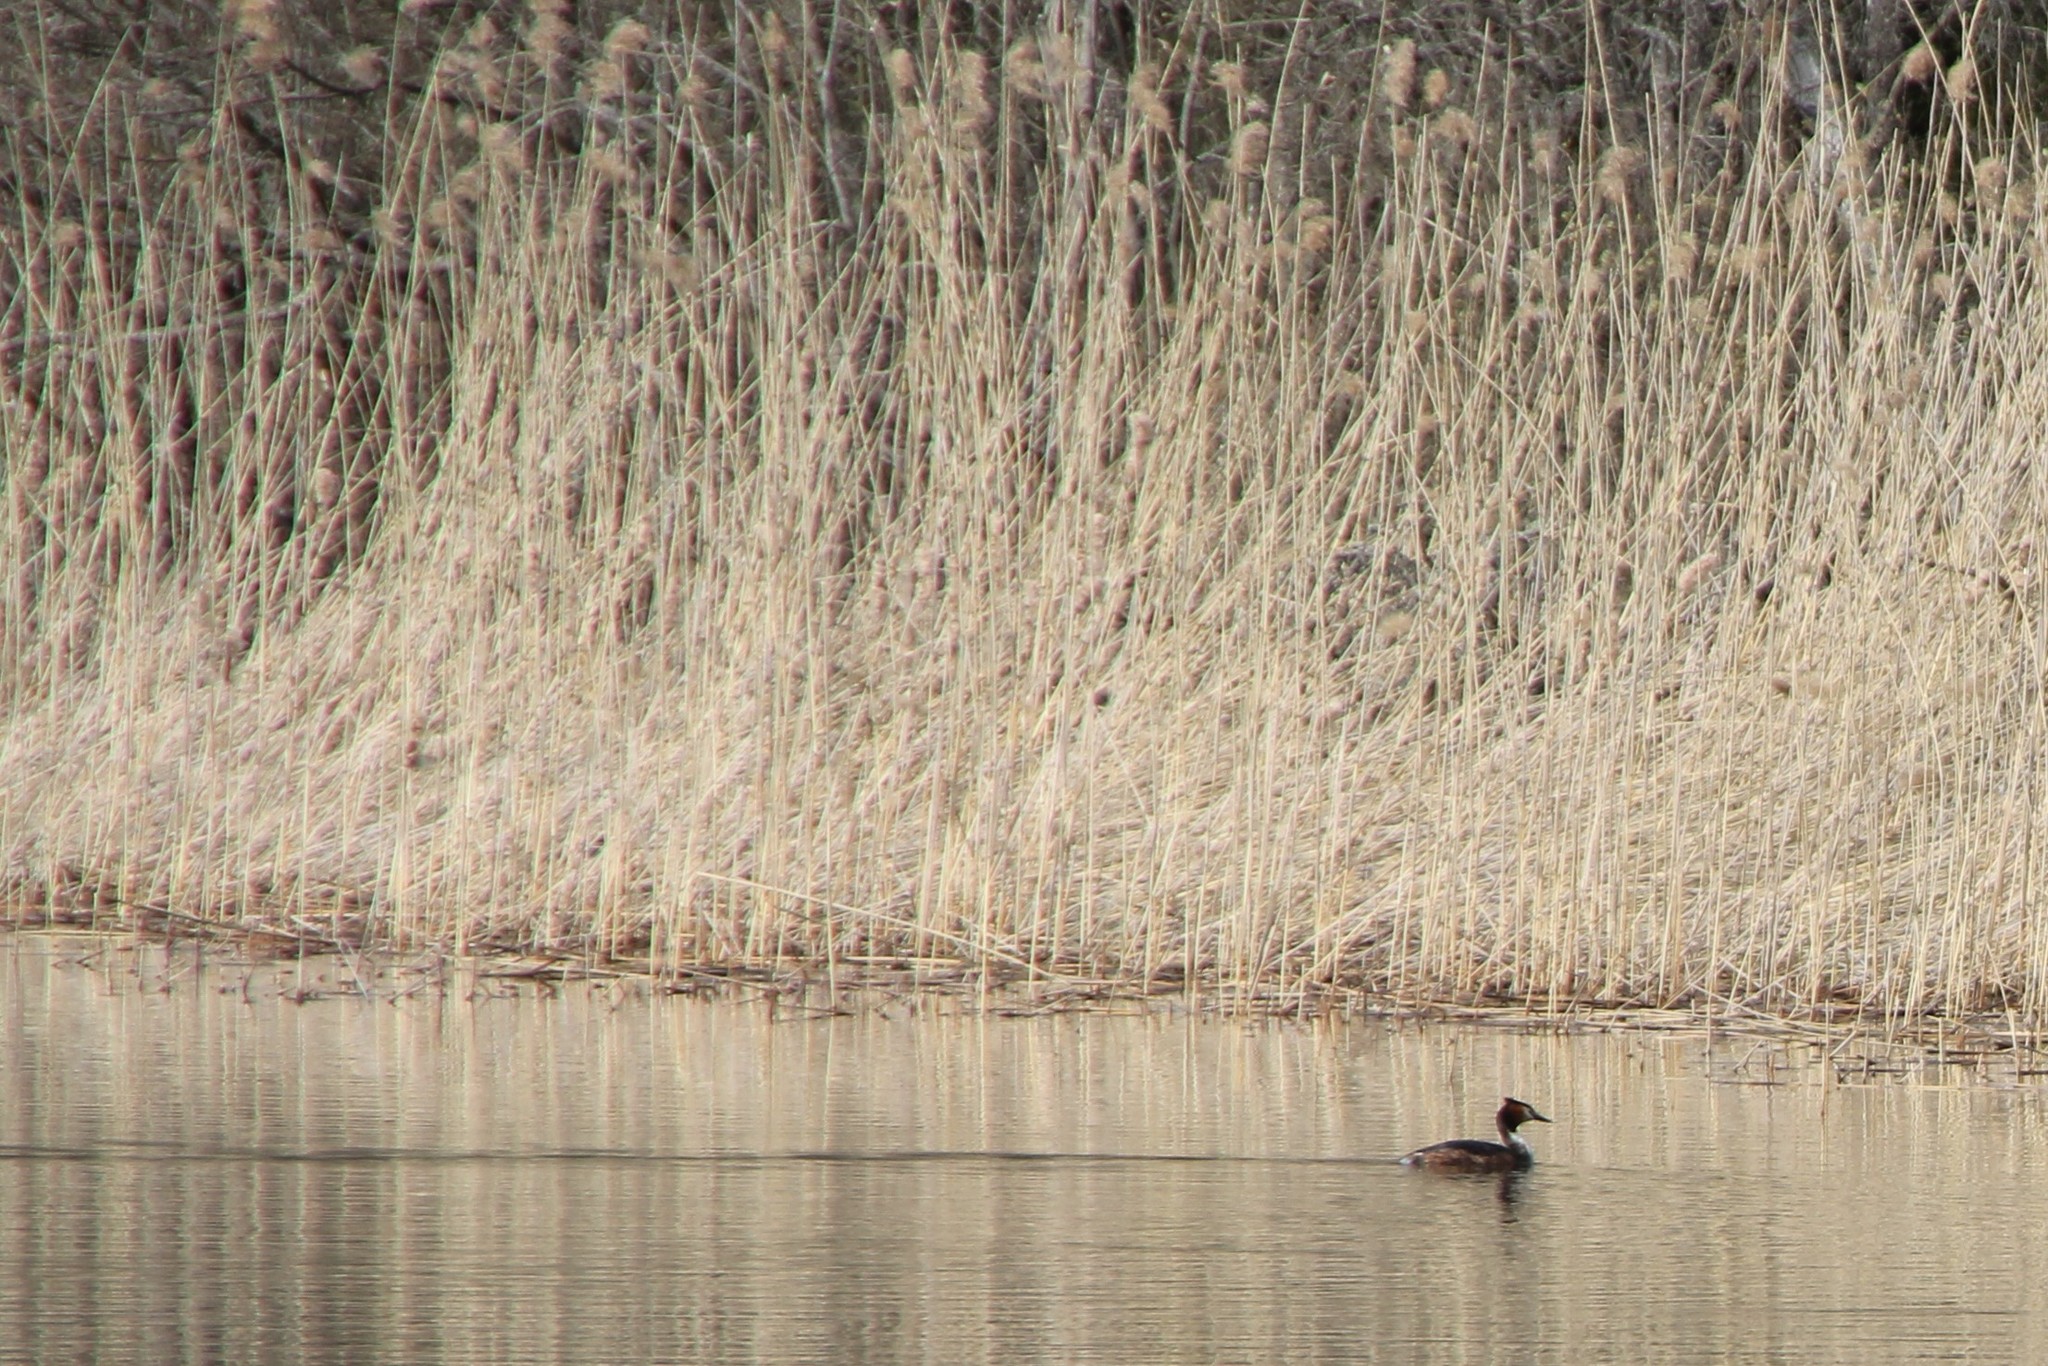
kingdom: Animalia
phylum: Chordata
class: Aves
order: Podicipediformes
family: Podicipedidae
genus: Podiceps
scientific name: Podiceps cristatus
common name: Great crested grebe
